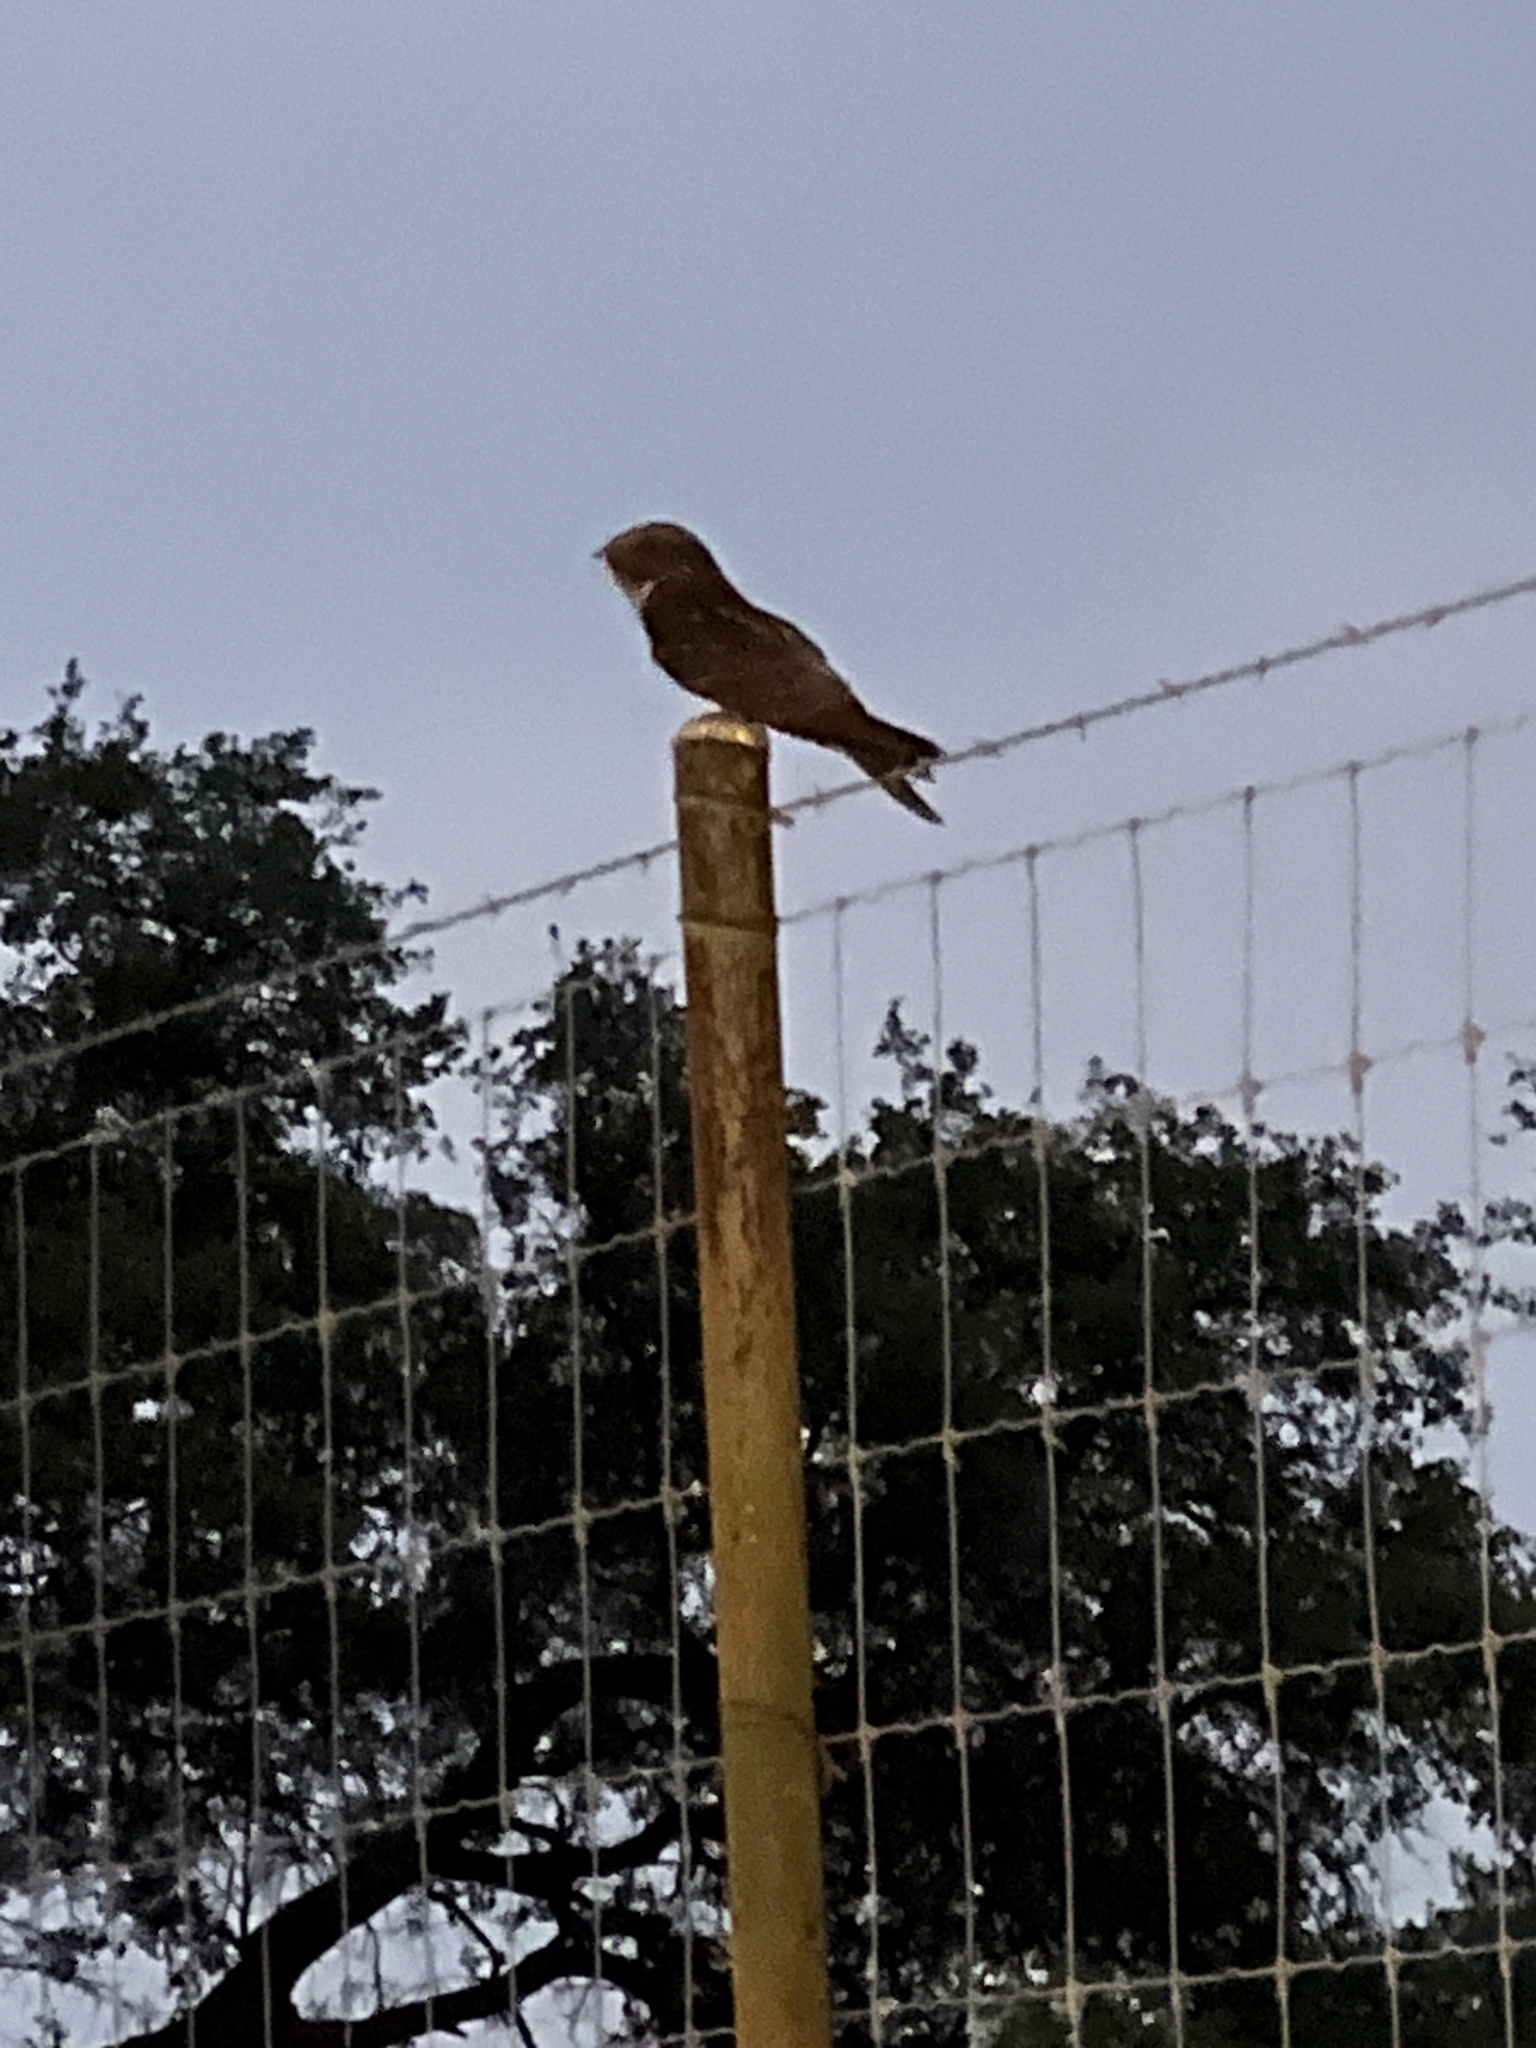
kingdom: Animalia
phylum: Chordata
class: Aves
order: Caprimulgiformes
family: Caprimulgidae
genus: Antrostomus
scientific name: Antrostomus carolinensis
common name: Chuck-will's-widow
